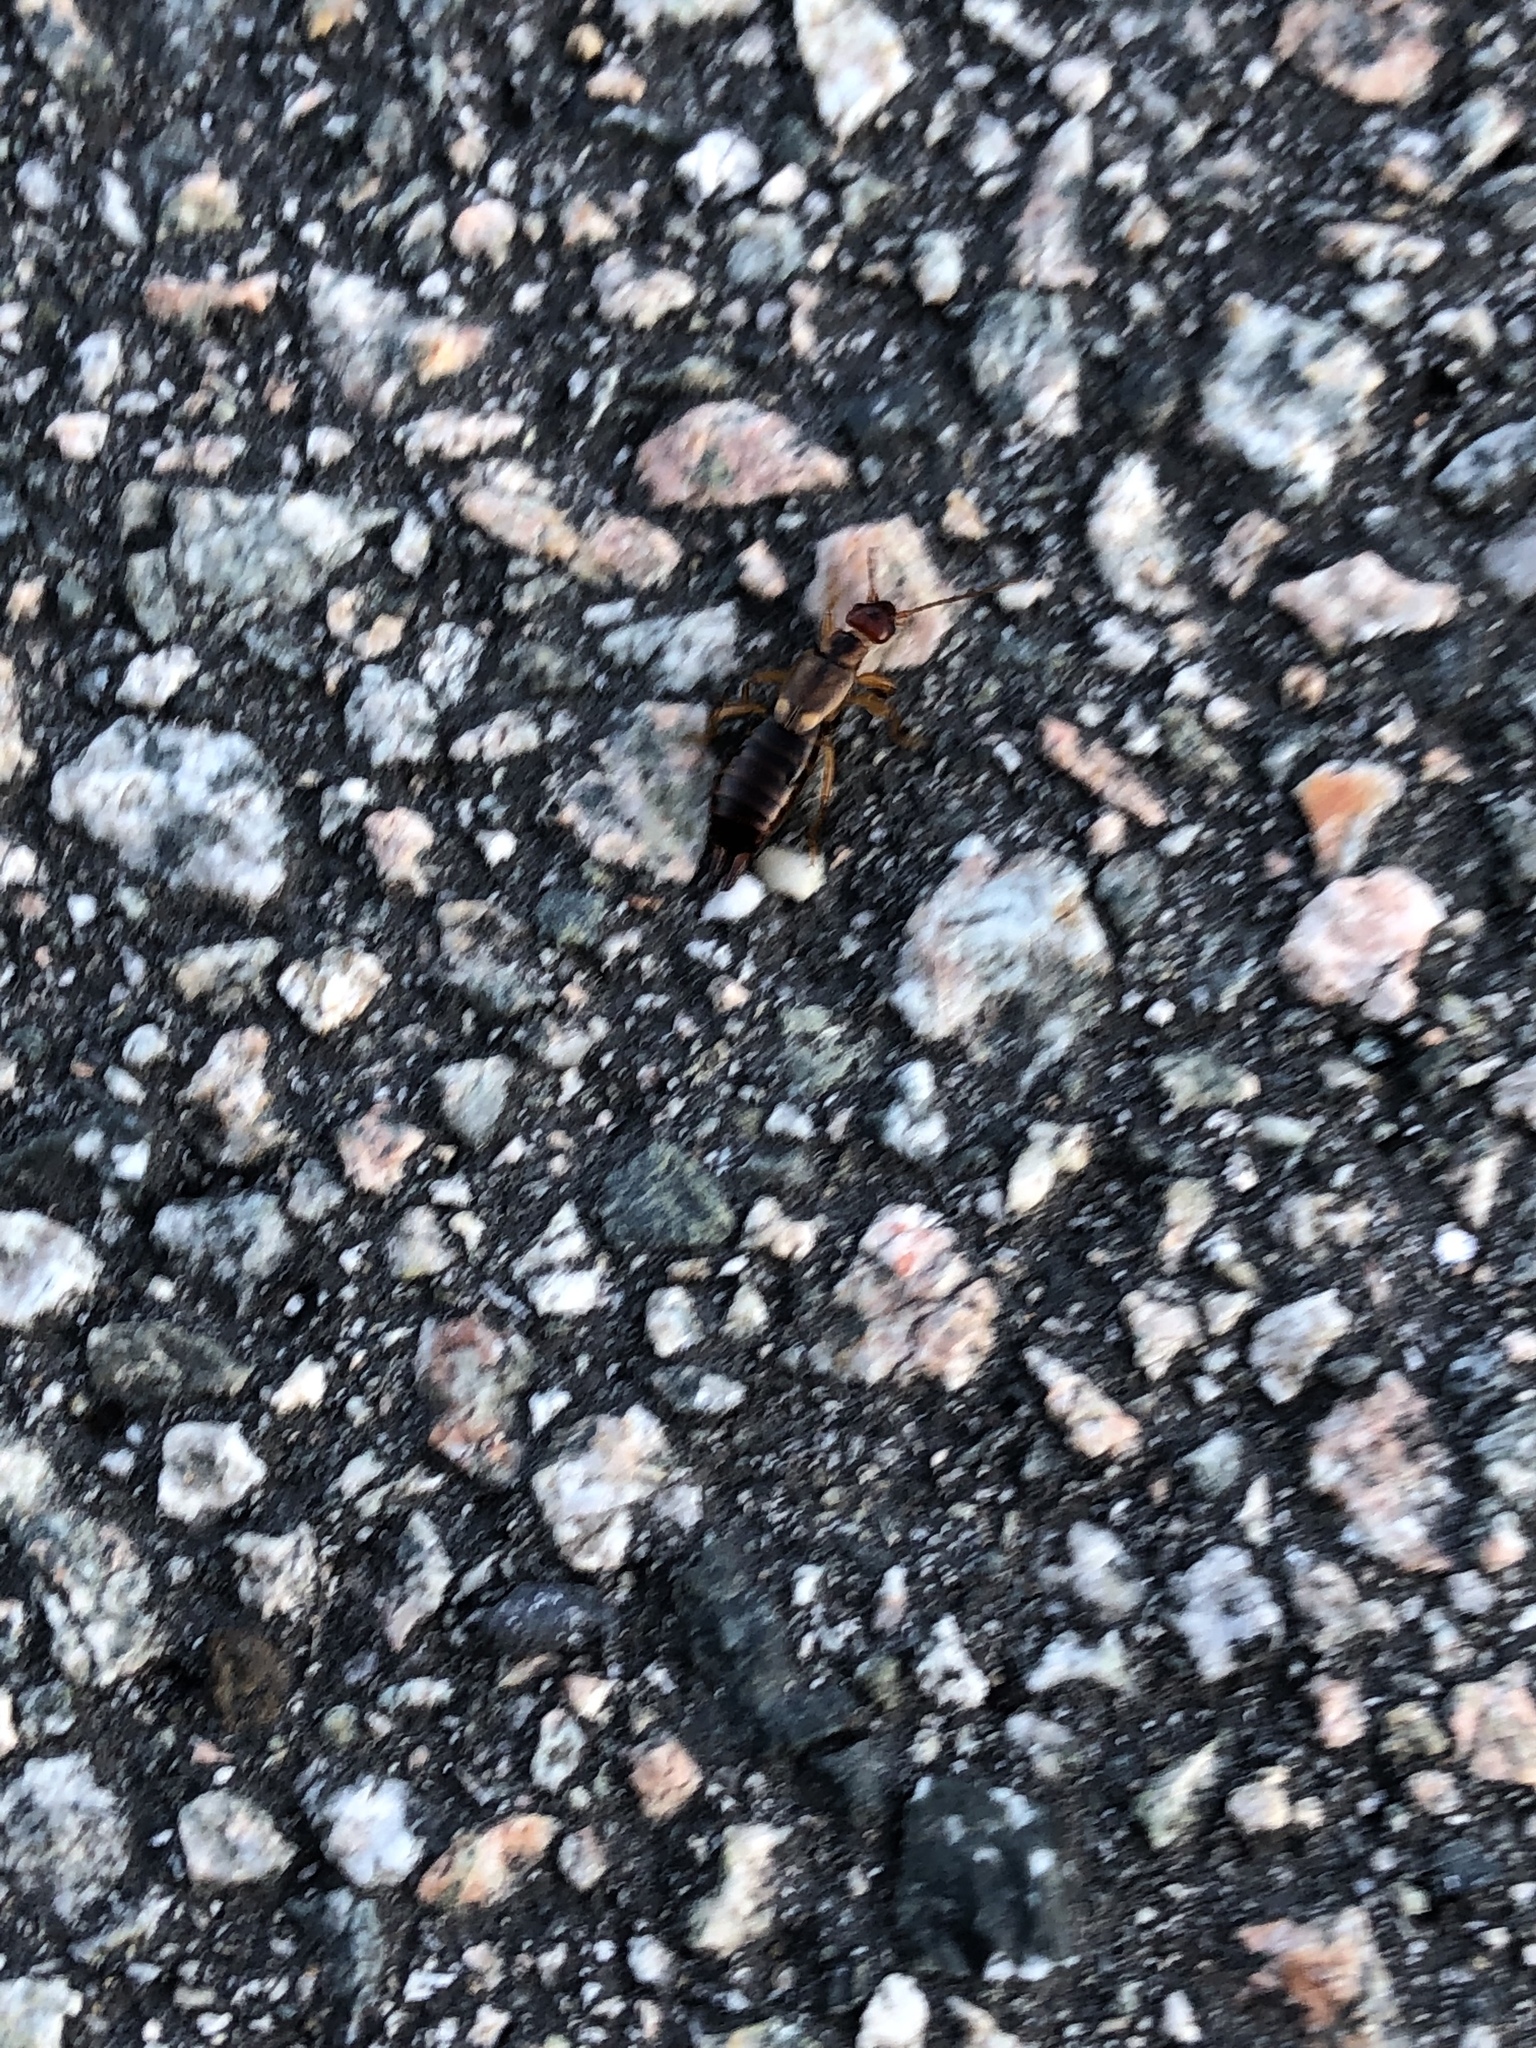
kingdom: Animalia
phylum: Arthropoda
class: Insecta
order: Dermaptera
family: Forficulidae
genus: Forficula
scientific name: Forficula
